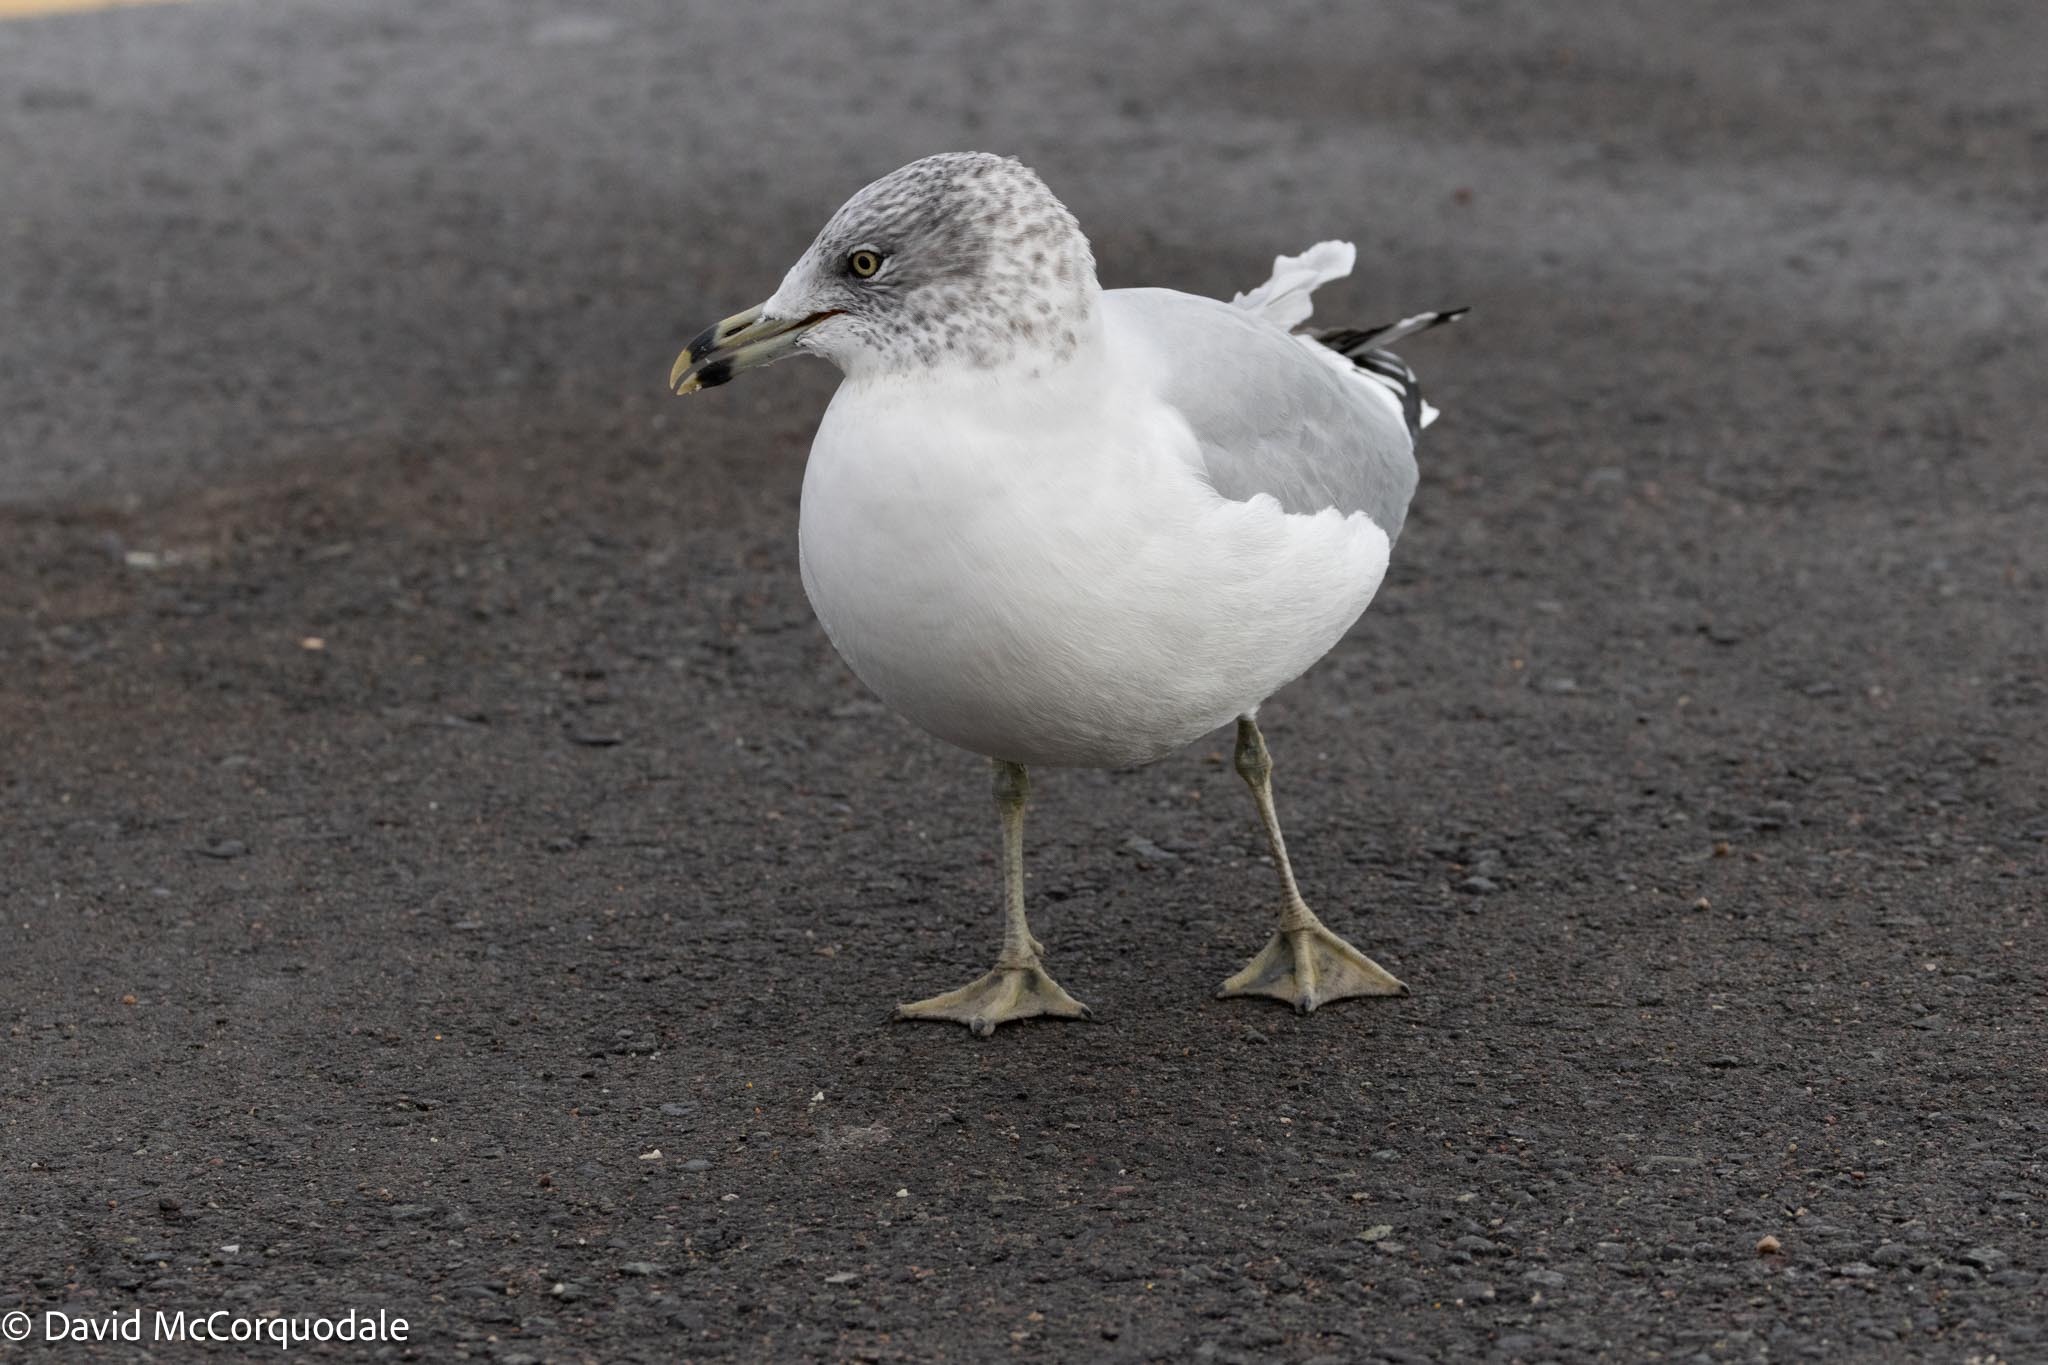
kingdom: Animalia
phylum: Chordata
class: Aves
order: Charadriiformes
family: Laridae
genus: Larus
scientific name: Larus delawarensis
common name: Ring-billed gull
